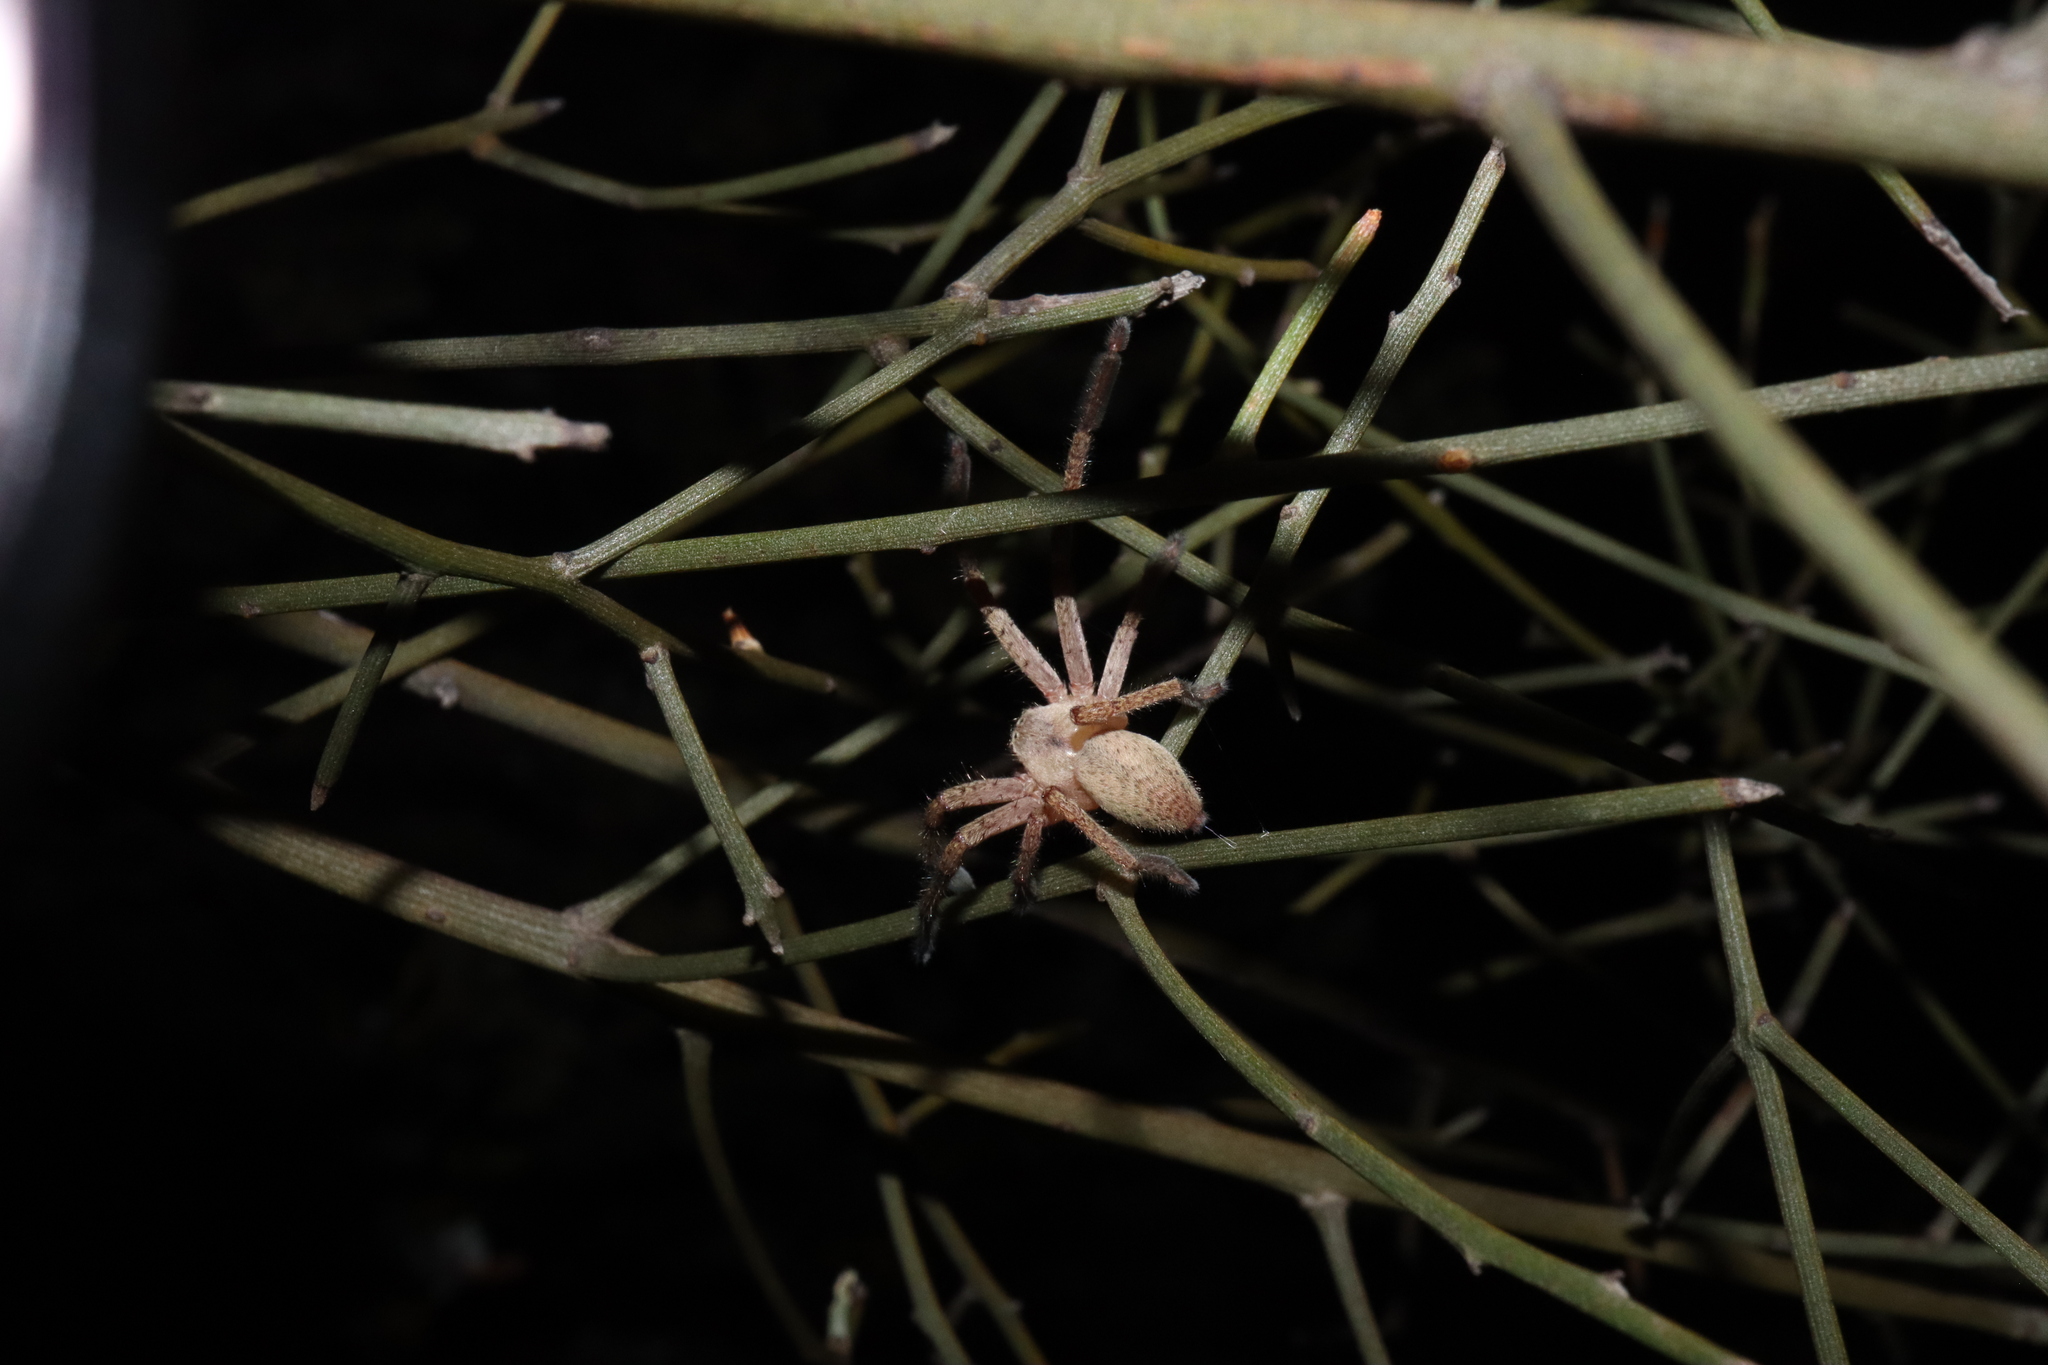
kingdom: Animalia
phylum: Arthropoda
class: Arachnida
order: Araneae
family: Sparassidae
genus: Delena
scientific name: Delena convexa
